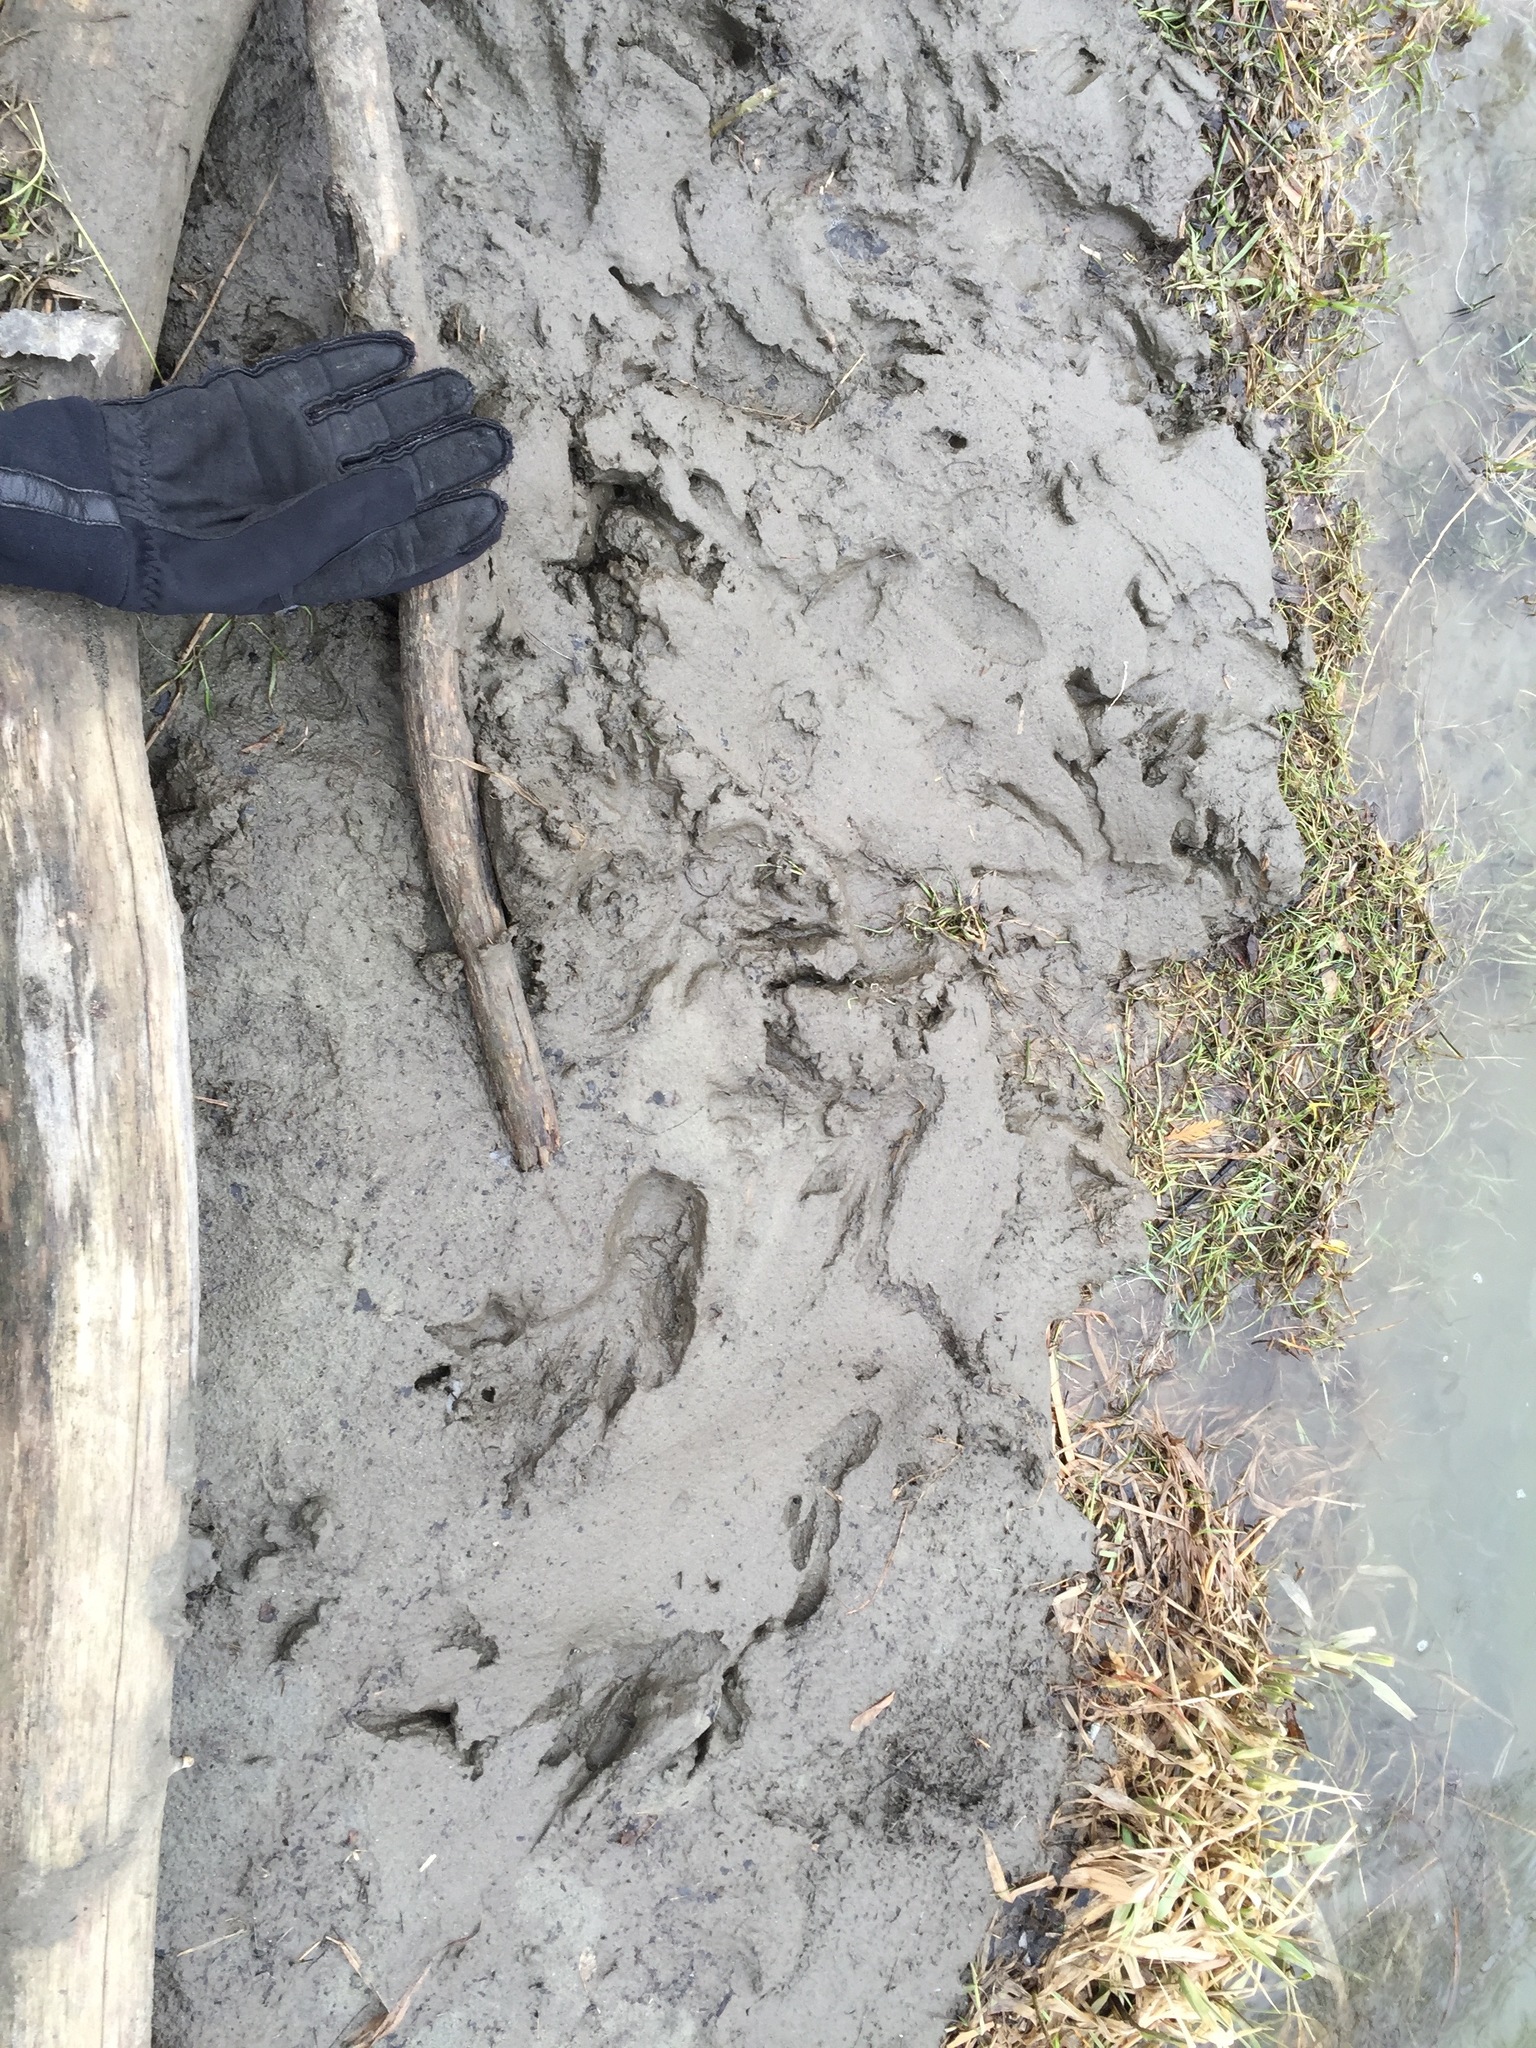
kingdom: Animalia
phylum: Chordata
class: Mammalia
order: Rodentia
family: Castoridae
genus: Castor
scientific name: Castor canadensis
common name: American beaver
